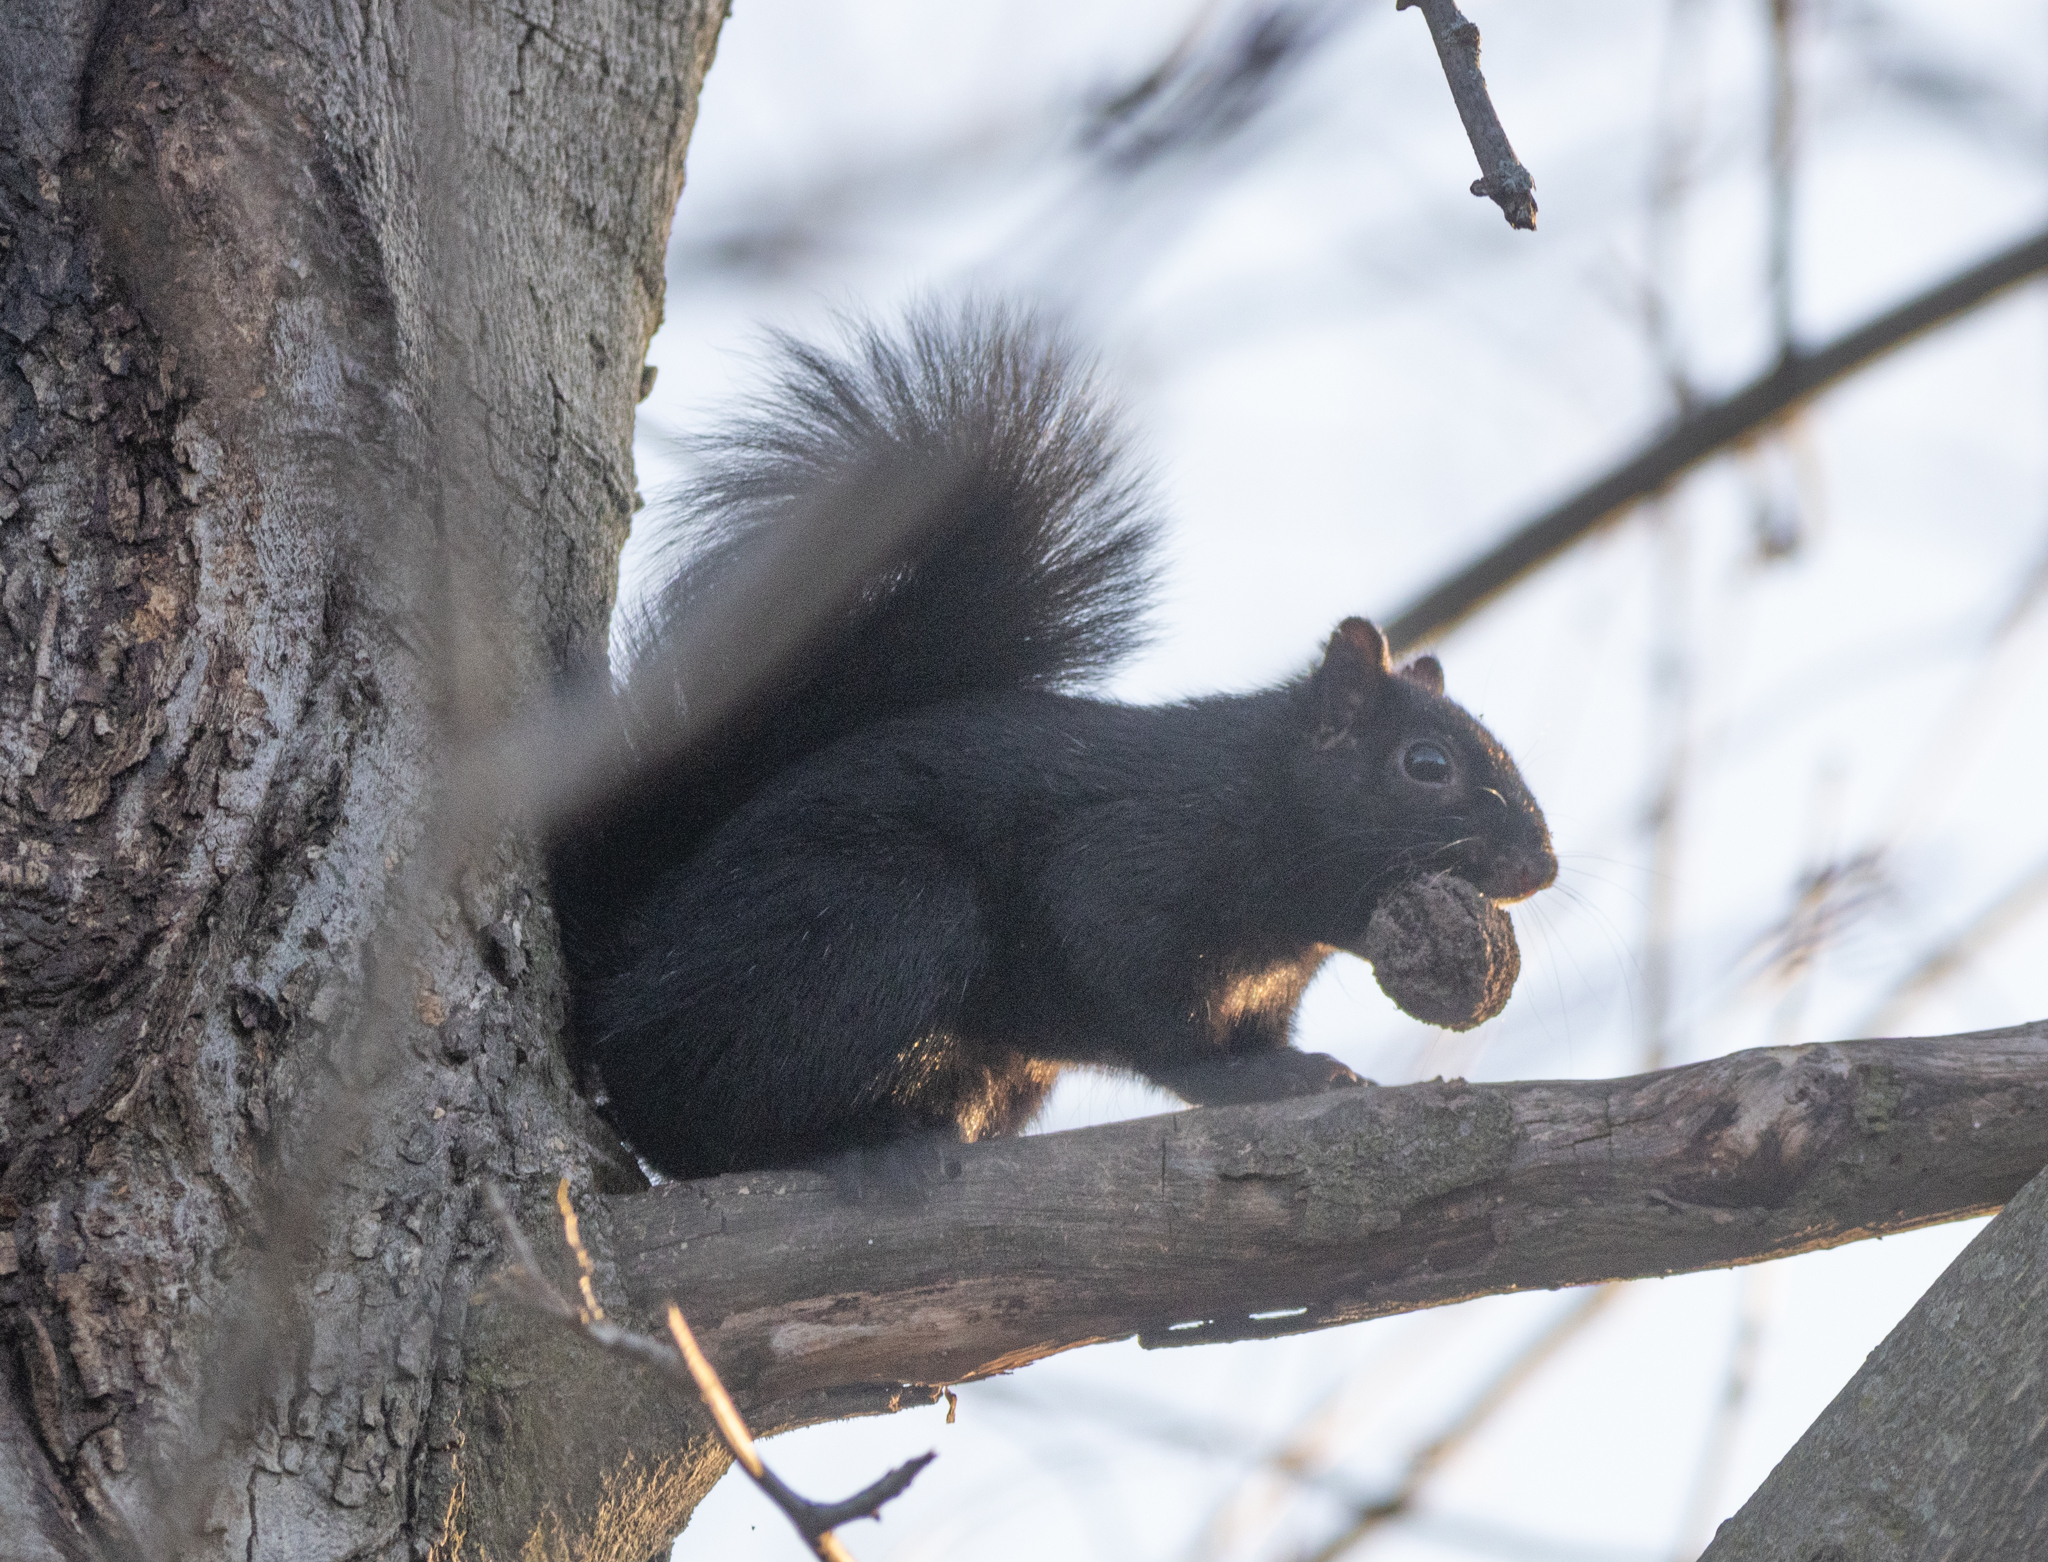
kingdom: Animalia
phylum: Chordata
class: Mammalia
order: Rodentia
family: Sciuridae
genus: Sciurus
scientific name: Sciurus carolinensis
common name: Eastern gray squirrel
